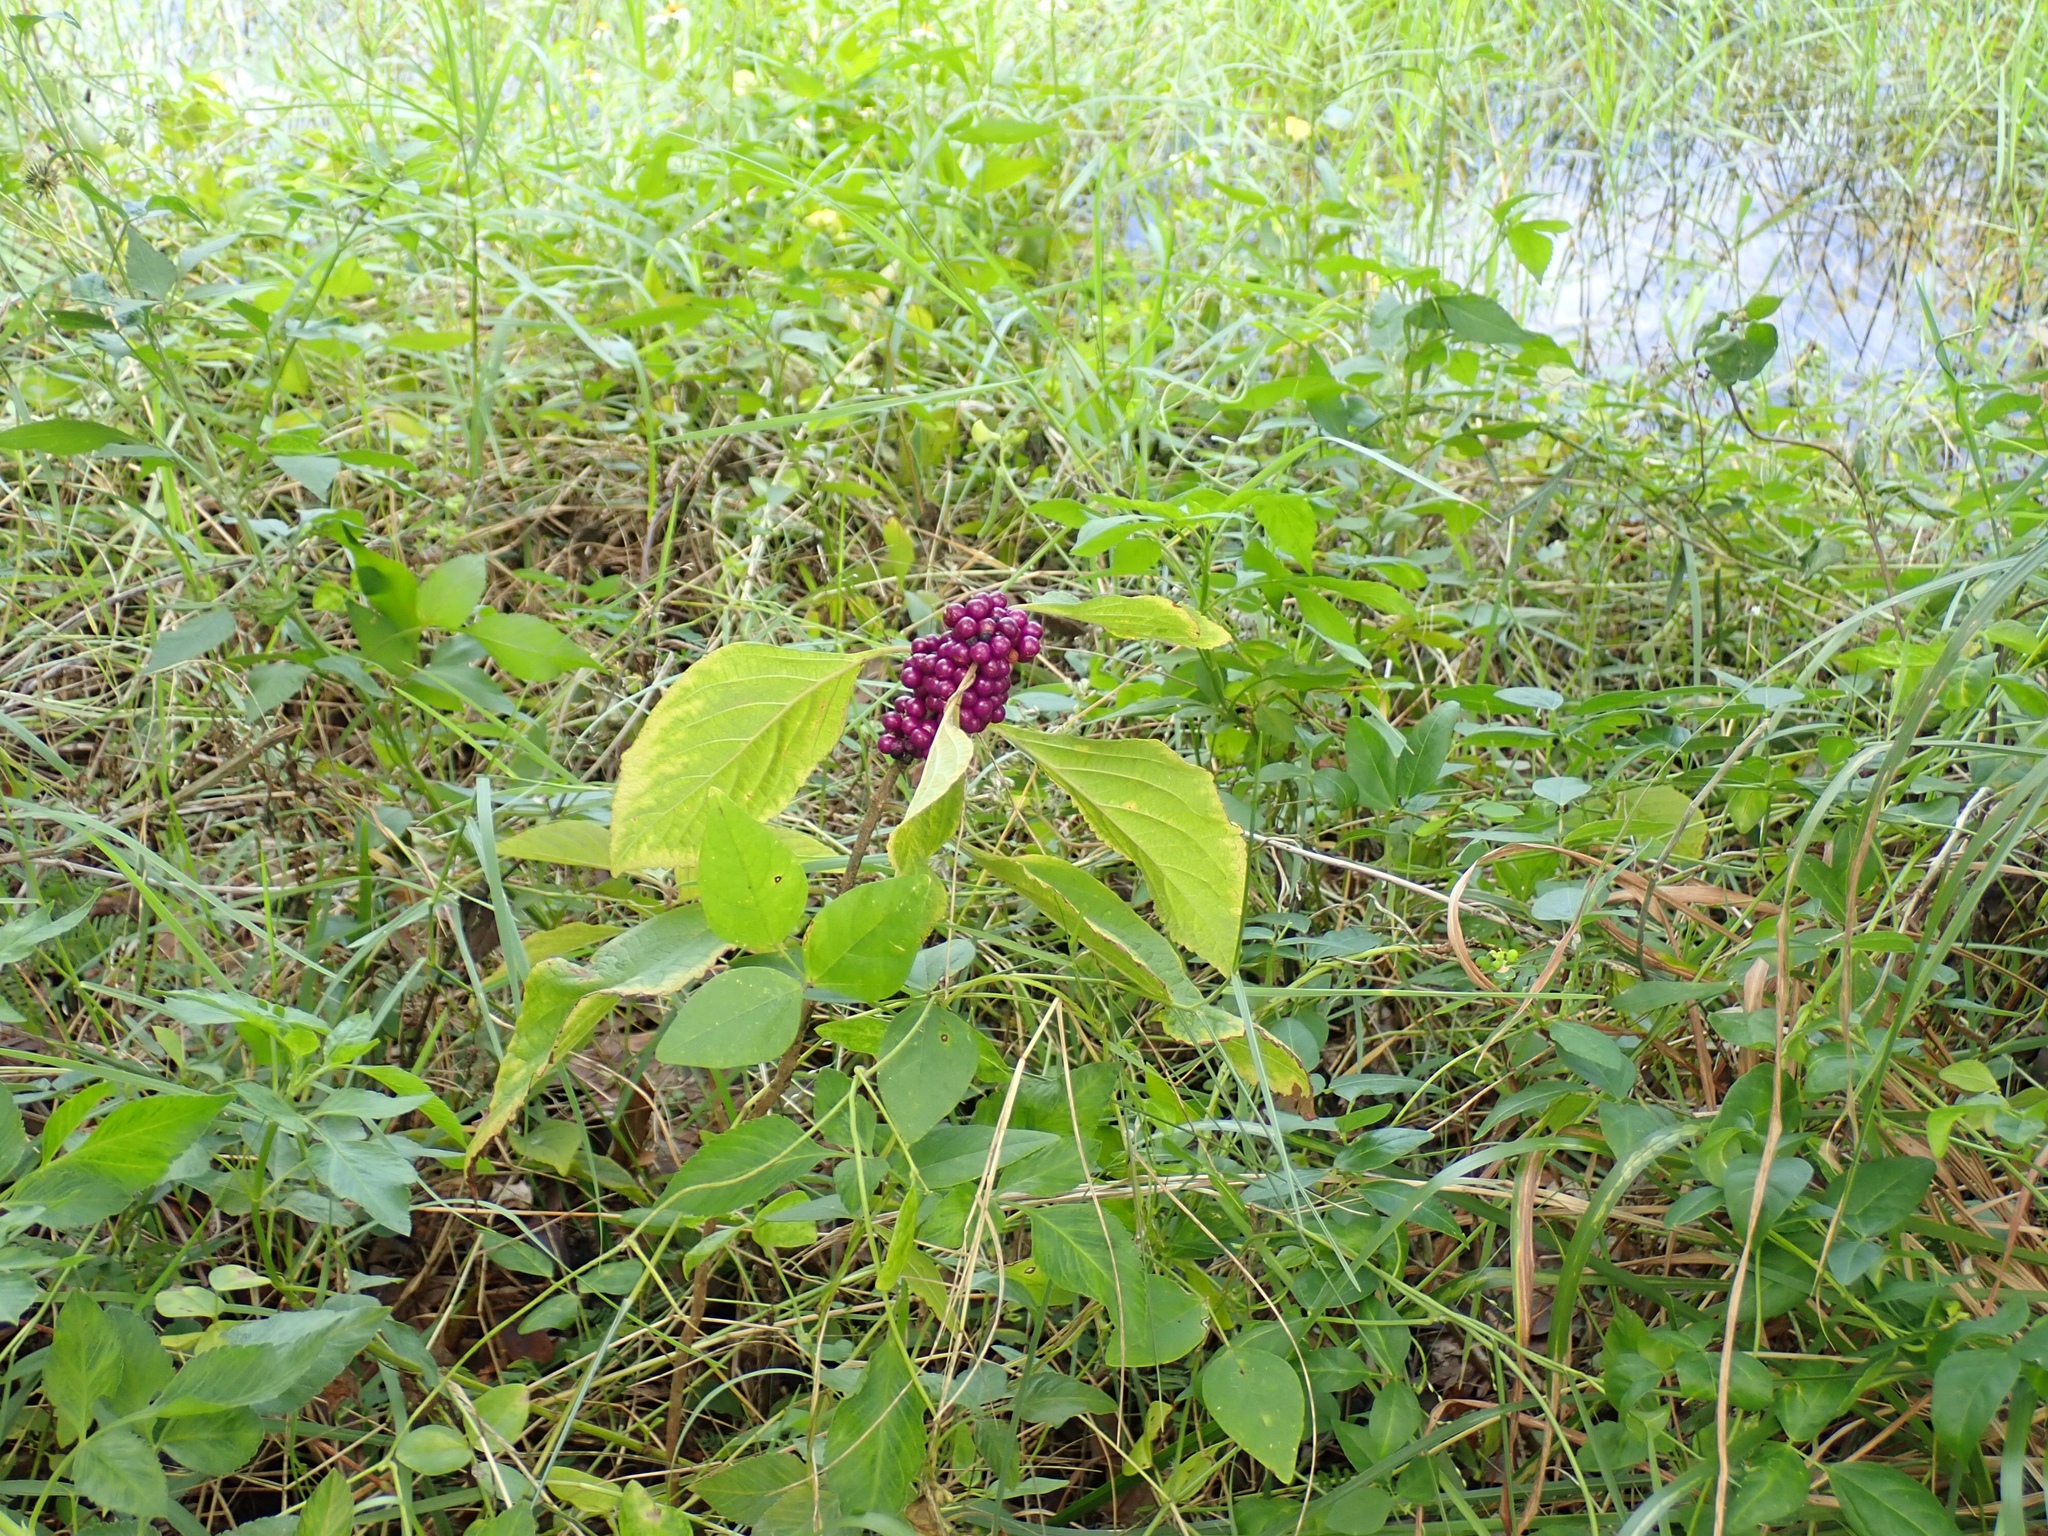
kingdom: Plantae
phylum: Tracheophyta
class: Magnoliopsida
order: Lamiales
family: Lamiaceae
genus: Callicarpa
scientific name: Callicarpa americana
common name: American beautyberry
